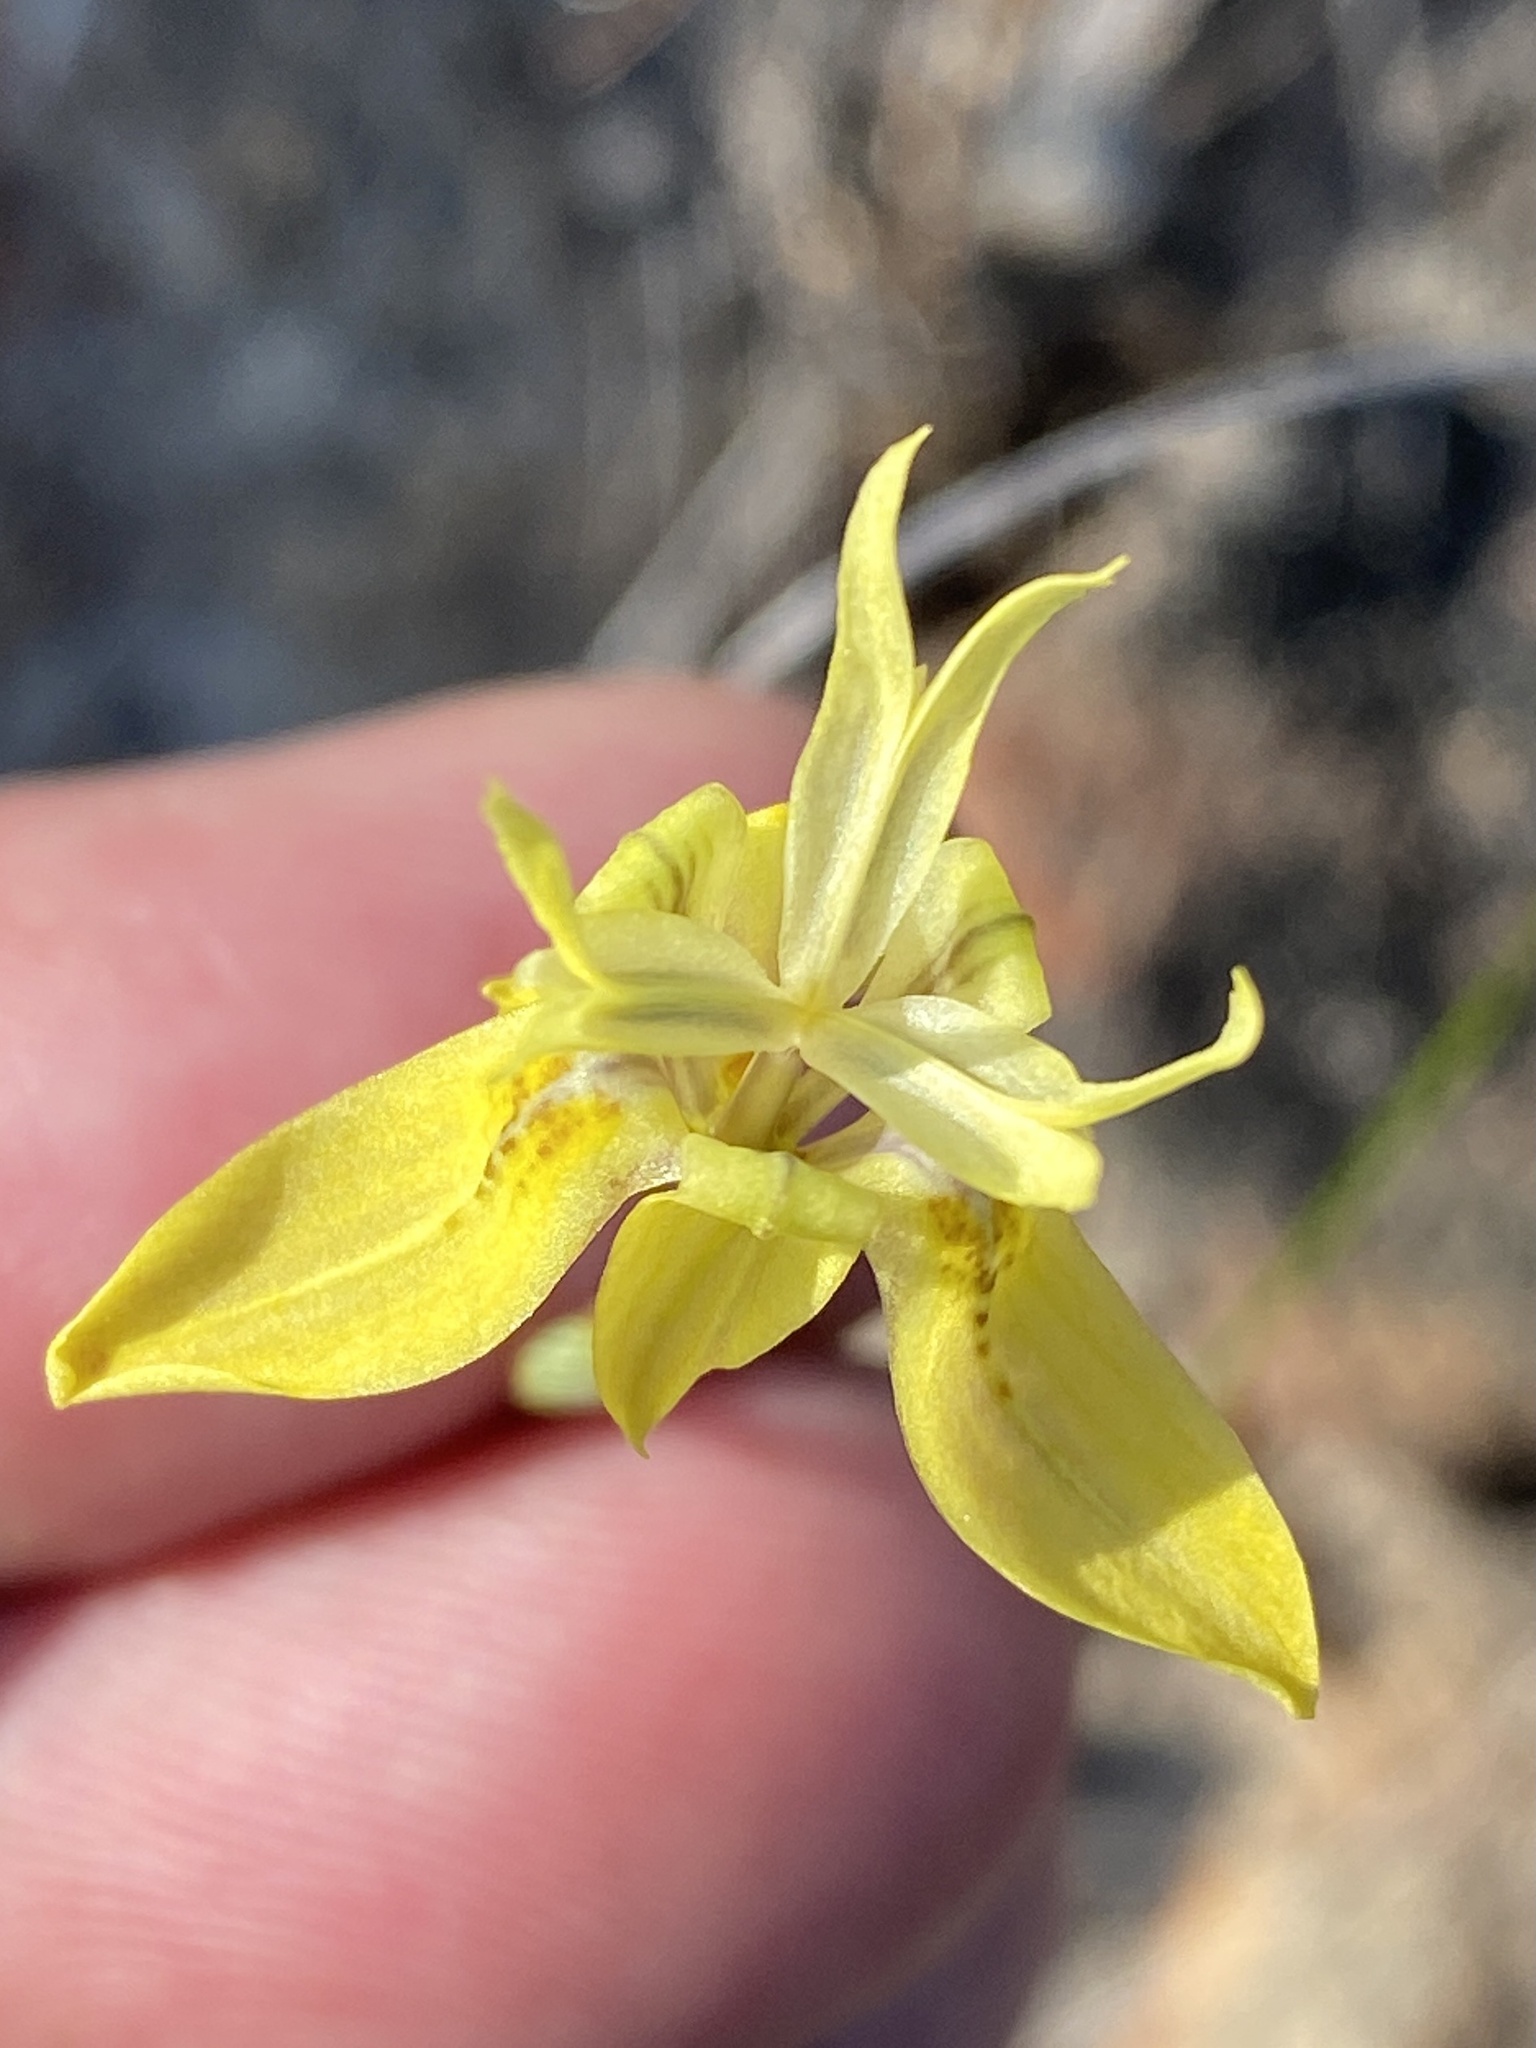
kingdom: Plantae
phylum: Tracheophyta
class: Liliopsida
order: Asparagales
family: Iridaceae
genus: Moraea
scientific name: Moraea inconspicua
